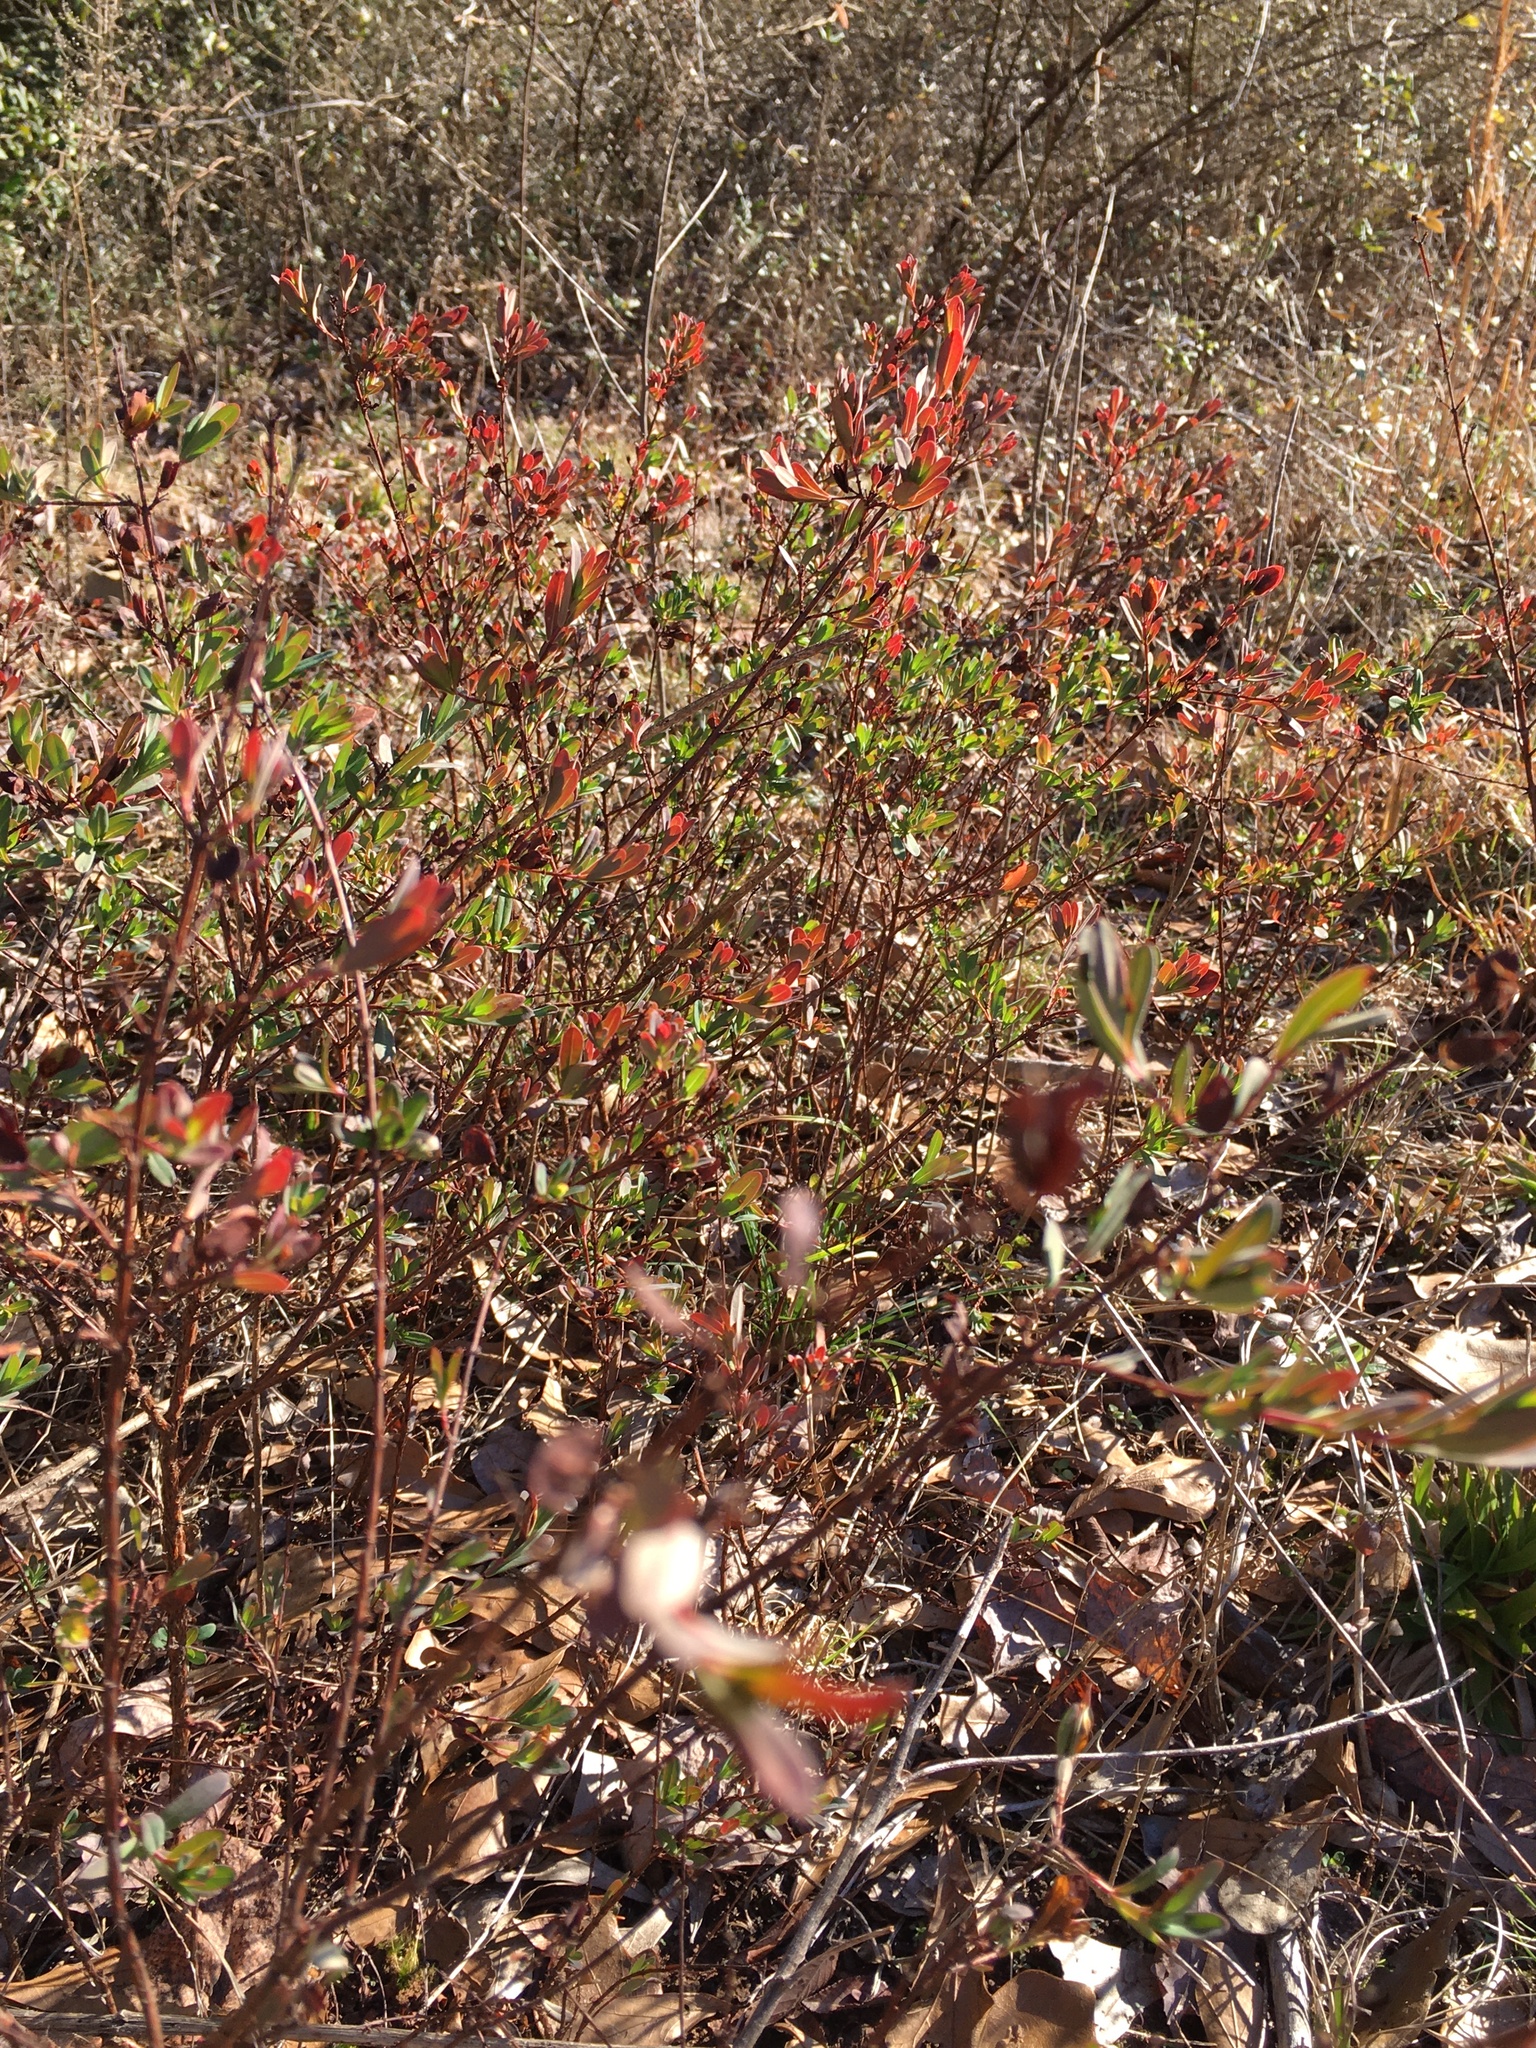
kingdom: Plantae
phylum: Tracheophyta
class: Magnoliopsida
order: Malpighiales
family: Hypericaceae
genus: Hypericum
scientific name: Hypericum hypericoides
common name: St. andrew's cross
